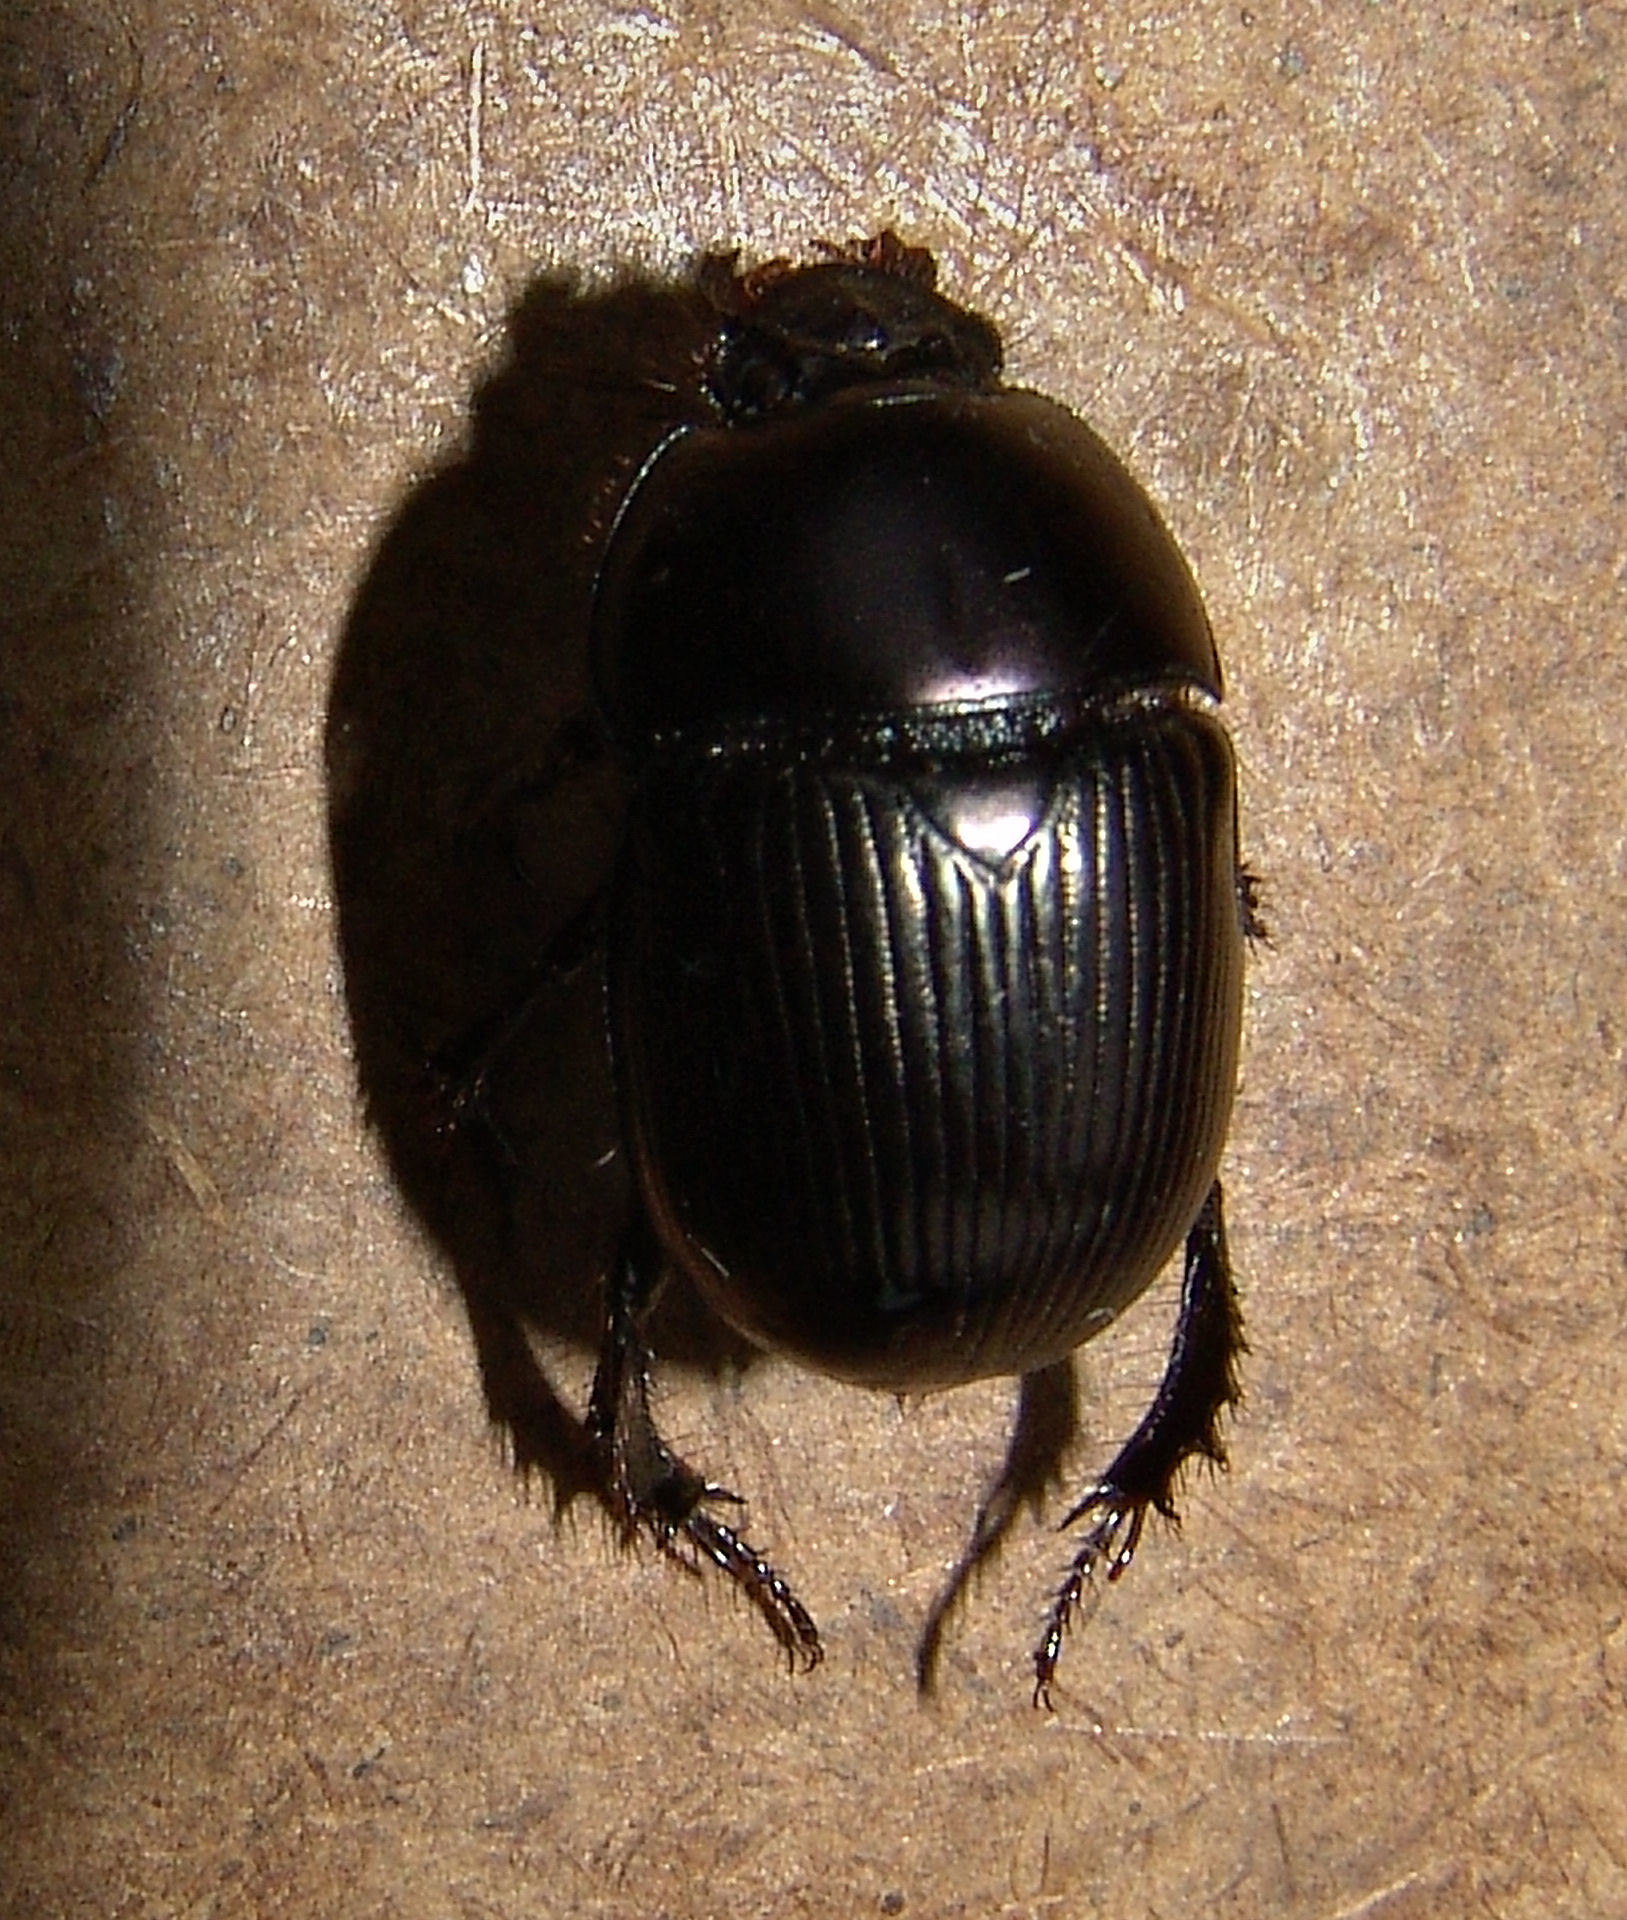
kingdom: Animalia
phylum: Arthropoda
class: Insecta
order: Coleoptera
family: Geotrupidae
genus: Geotrupes
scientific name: Geotrupes splendidus
